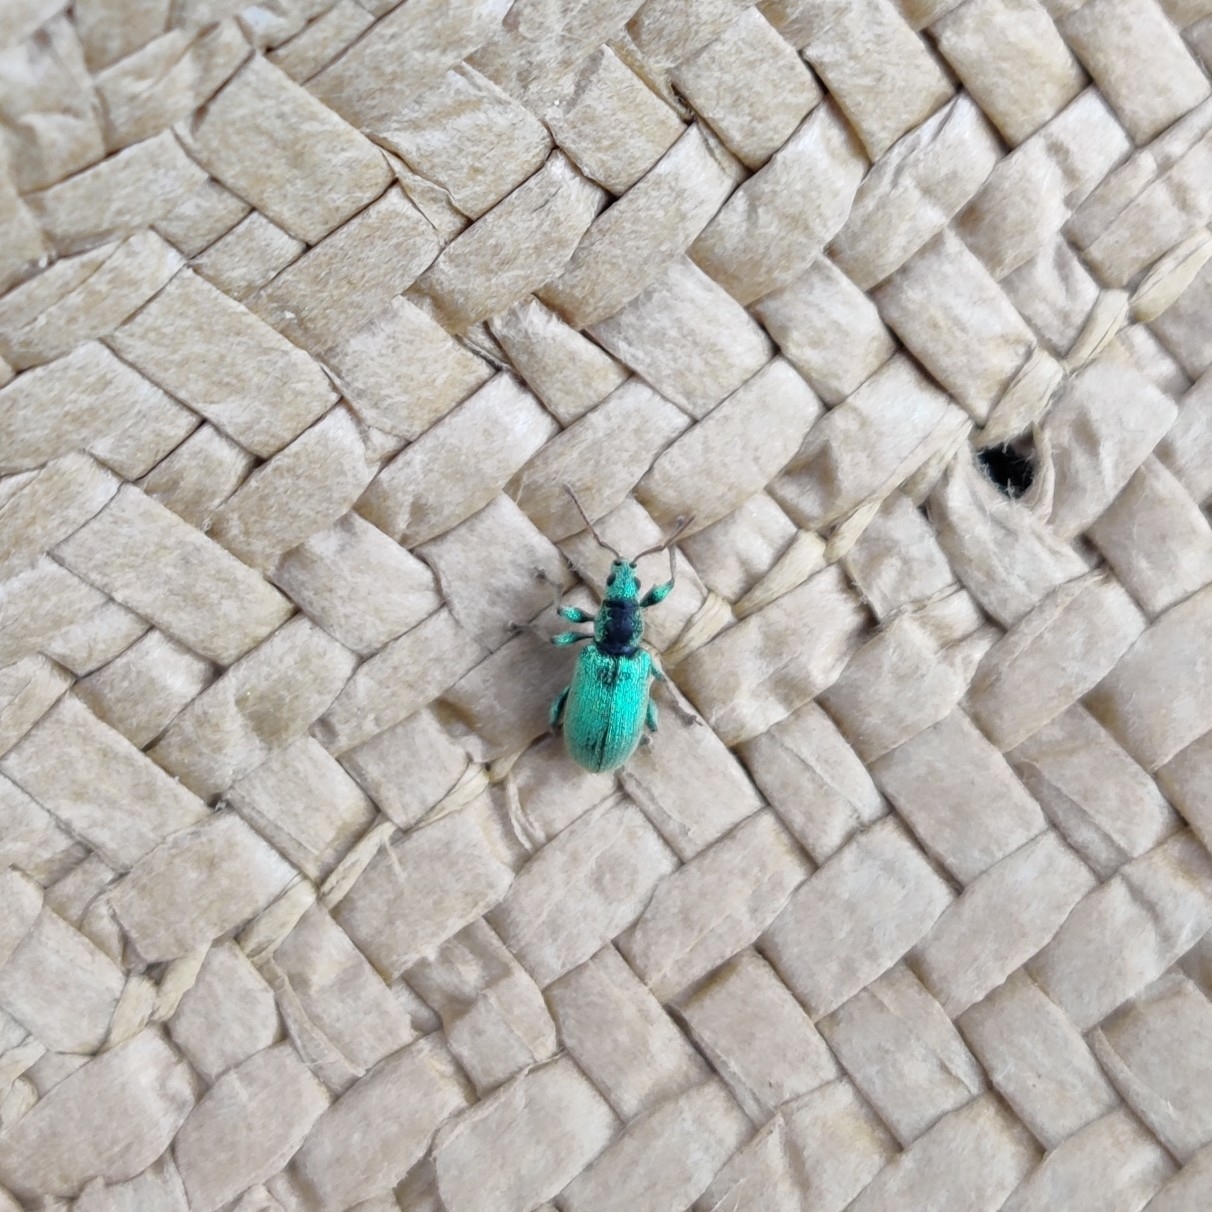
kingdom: Animalia
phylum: Arthropoda
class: Insecta
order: Coleoptera
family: Curculionidae
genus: Phyllobius
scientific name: Phyllobius argentatus
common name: Silver-green leaf weevil
